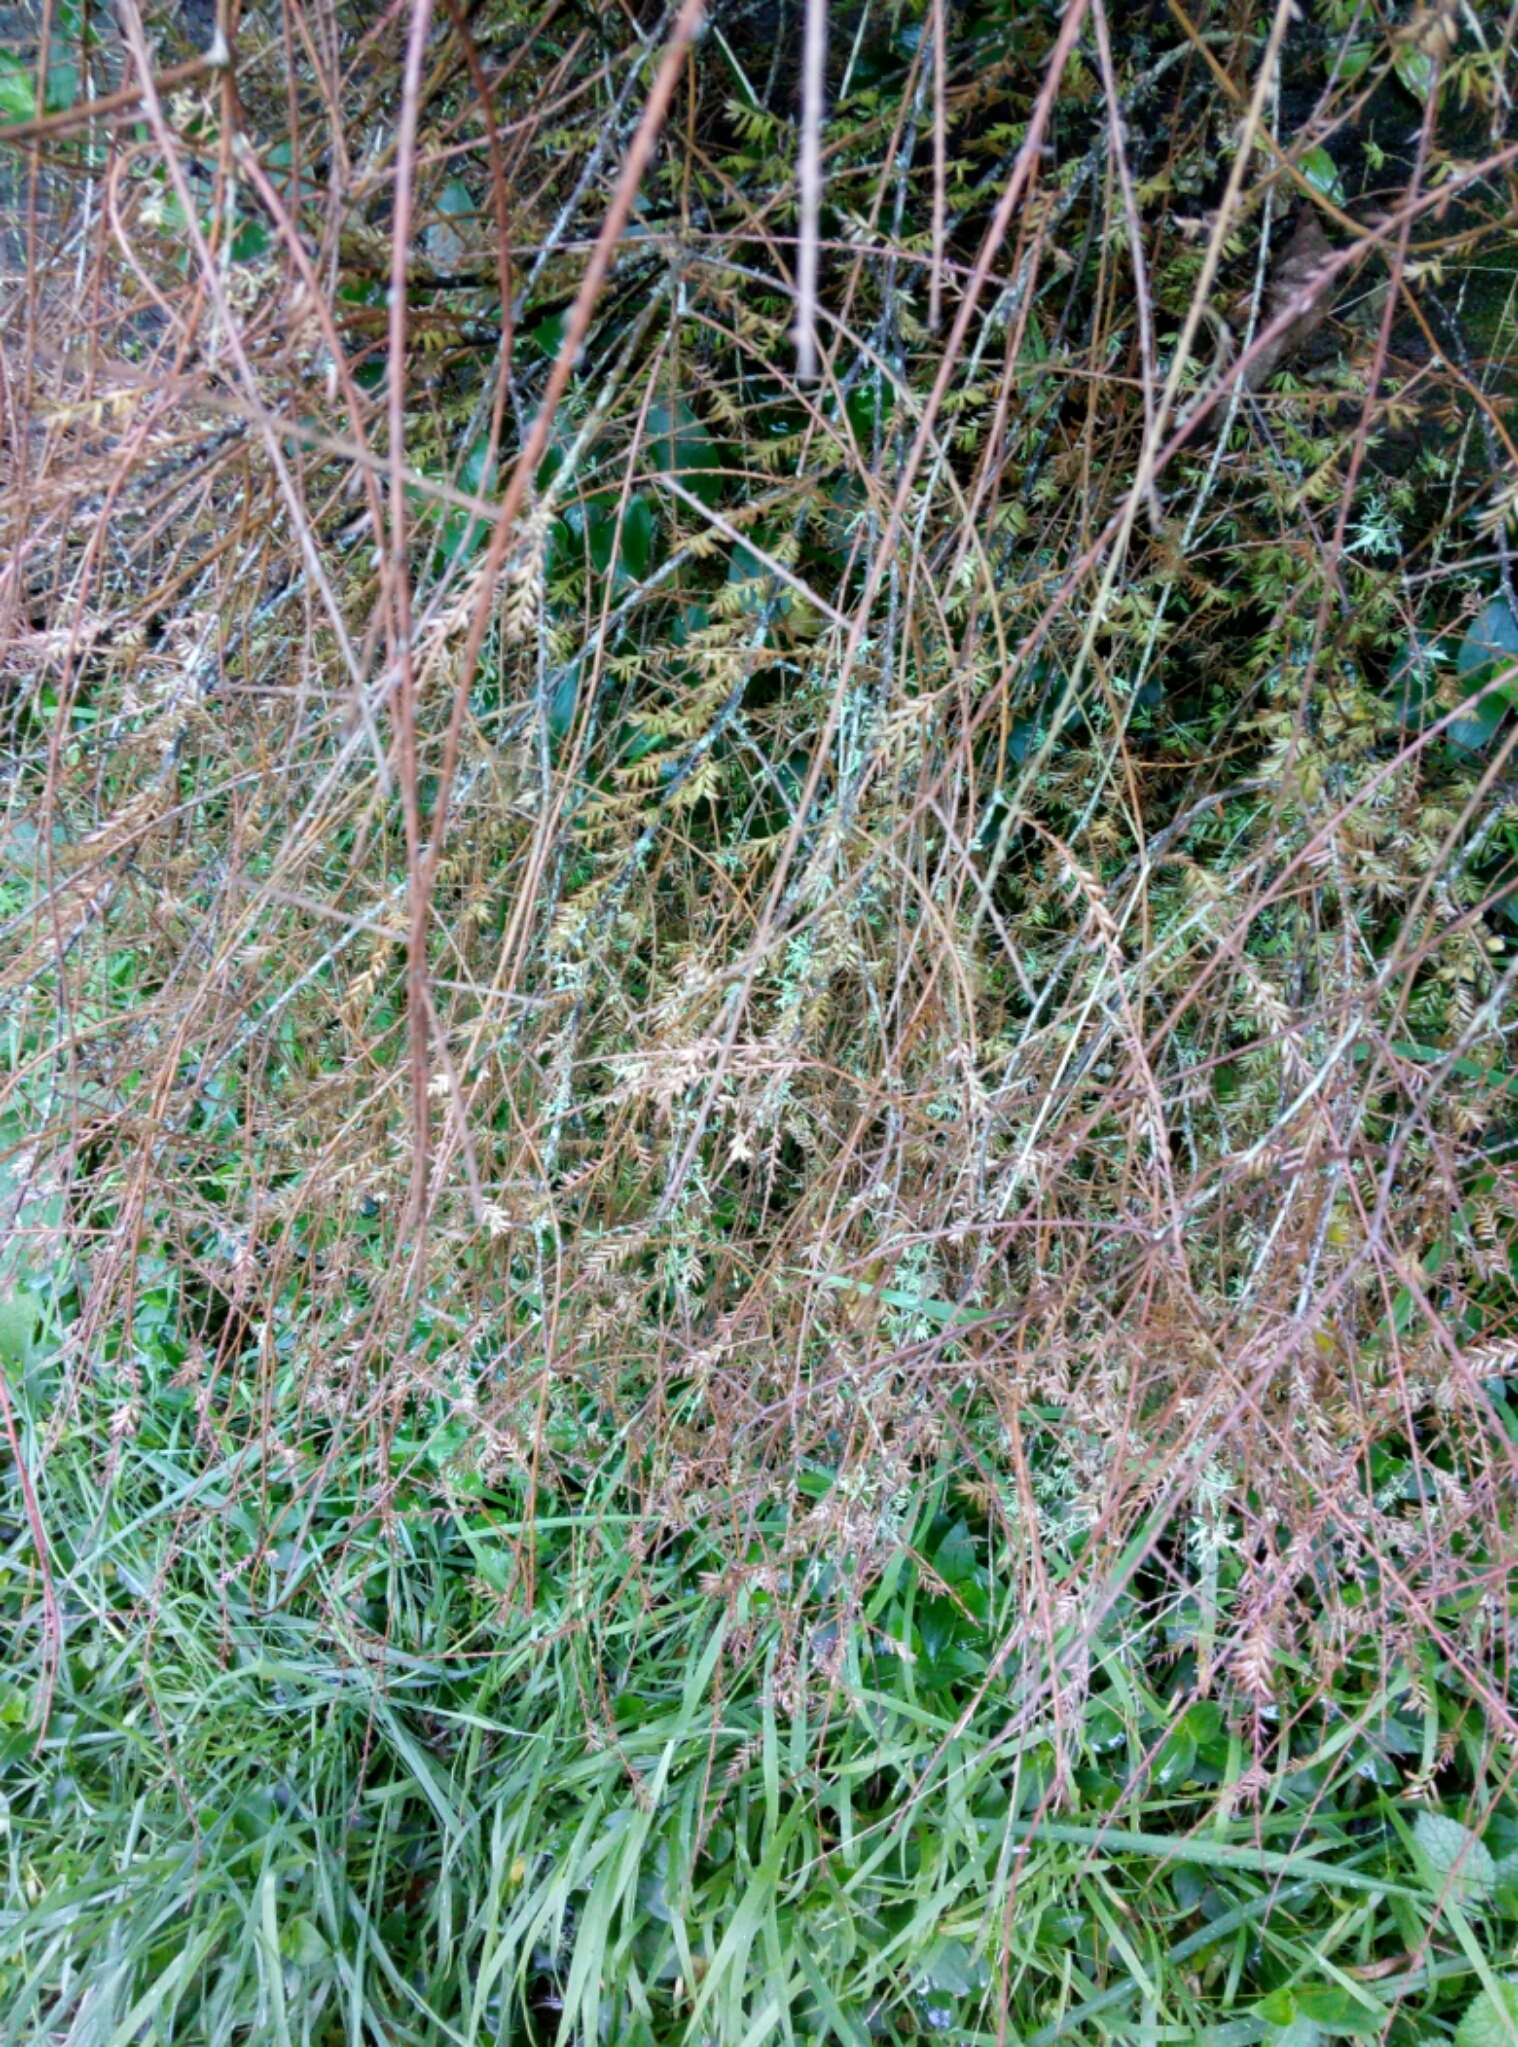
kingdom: Plantae
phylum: Tracheophyta
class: Pinopsida
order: Pinales
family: Podocarpaceae
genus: Dacrycarpus
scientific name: Dacrycarpus dacrydioides
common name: White pine
